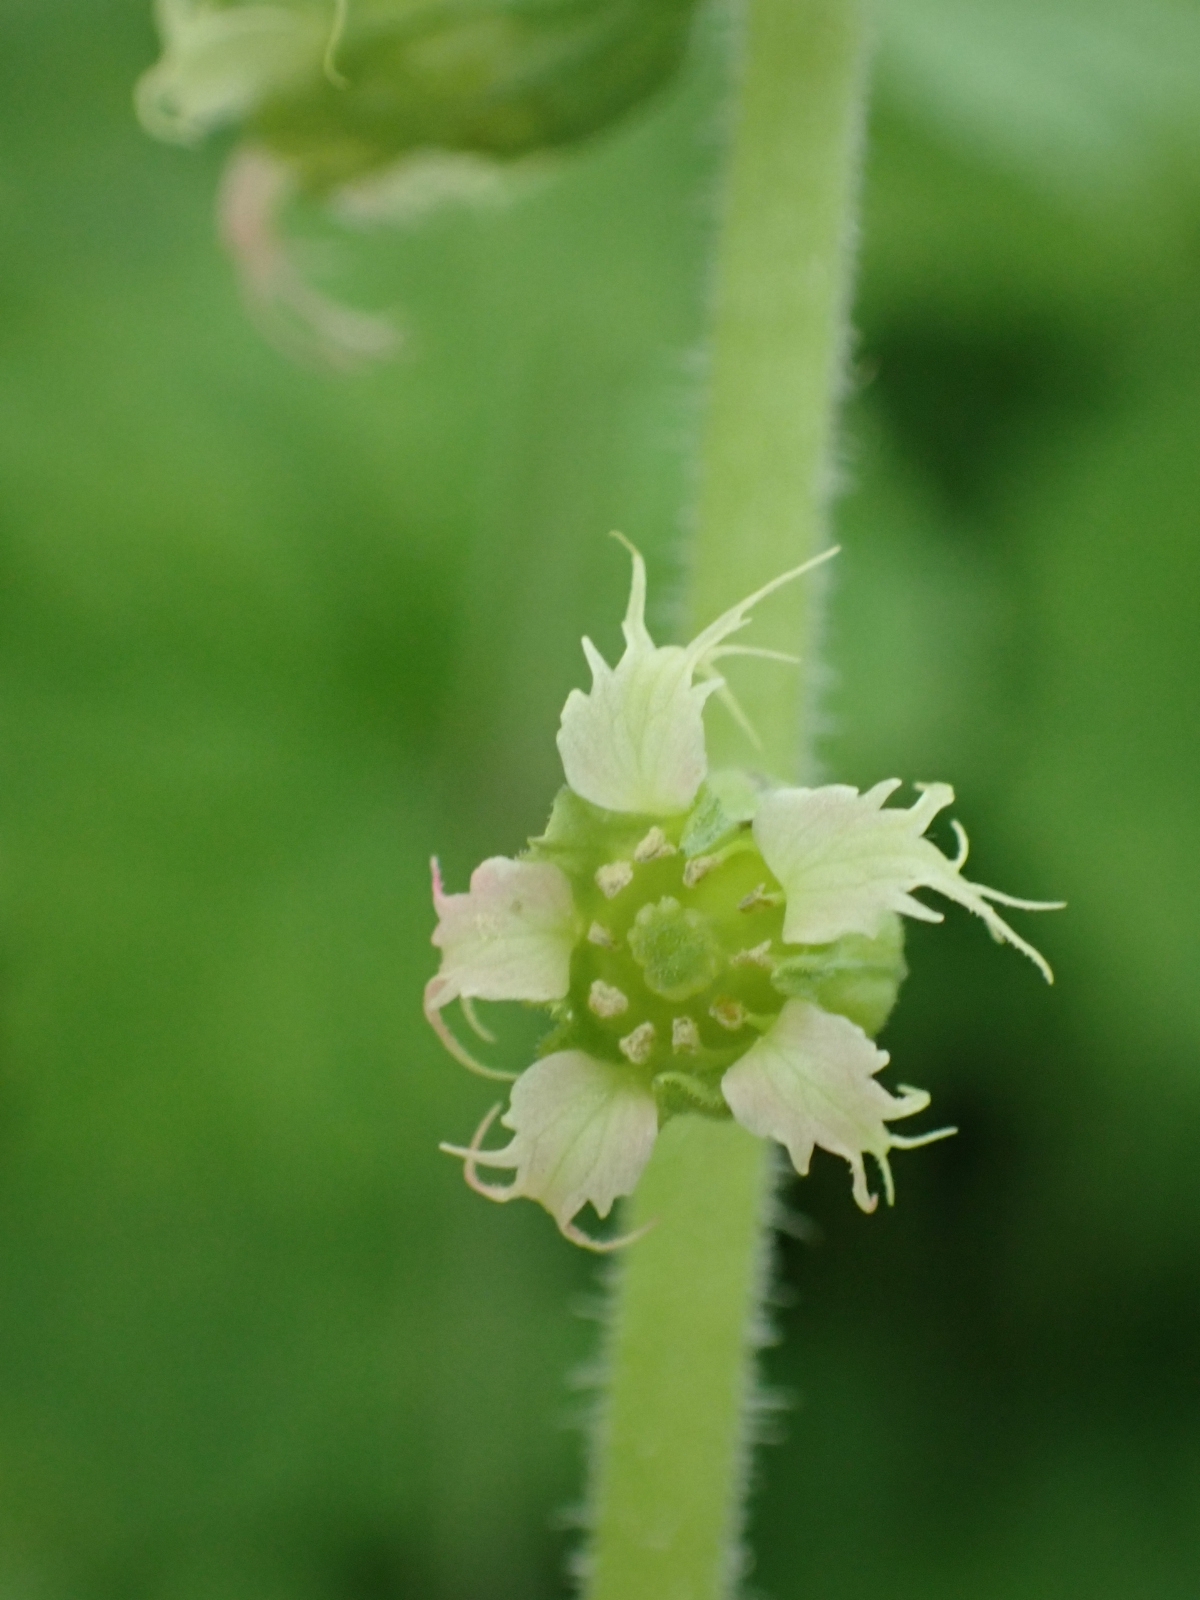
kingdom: Plantae
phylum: Tracheophyta
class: Magnoliopsida
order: Saxifragales
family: Saxifragaceae
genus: Tellima
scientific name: Tellima grandiflora
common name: Fringecups
